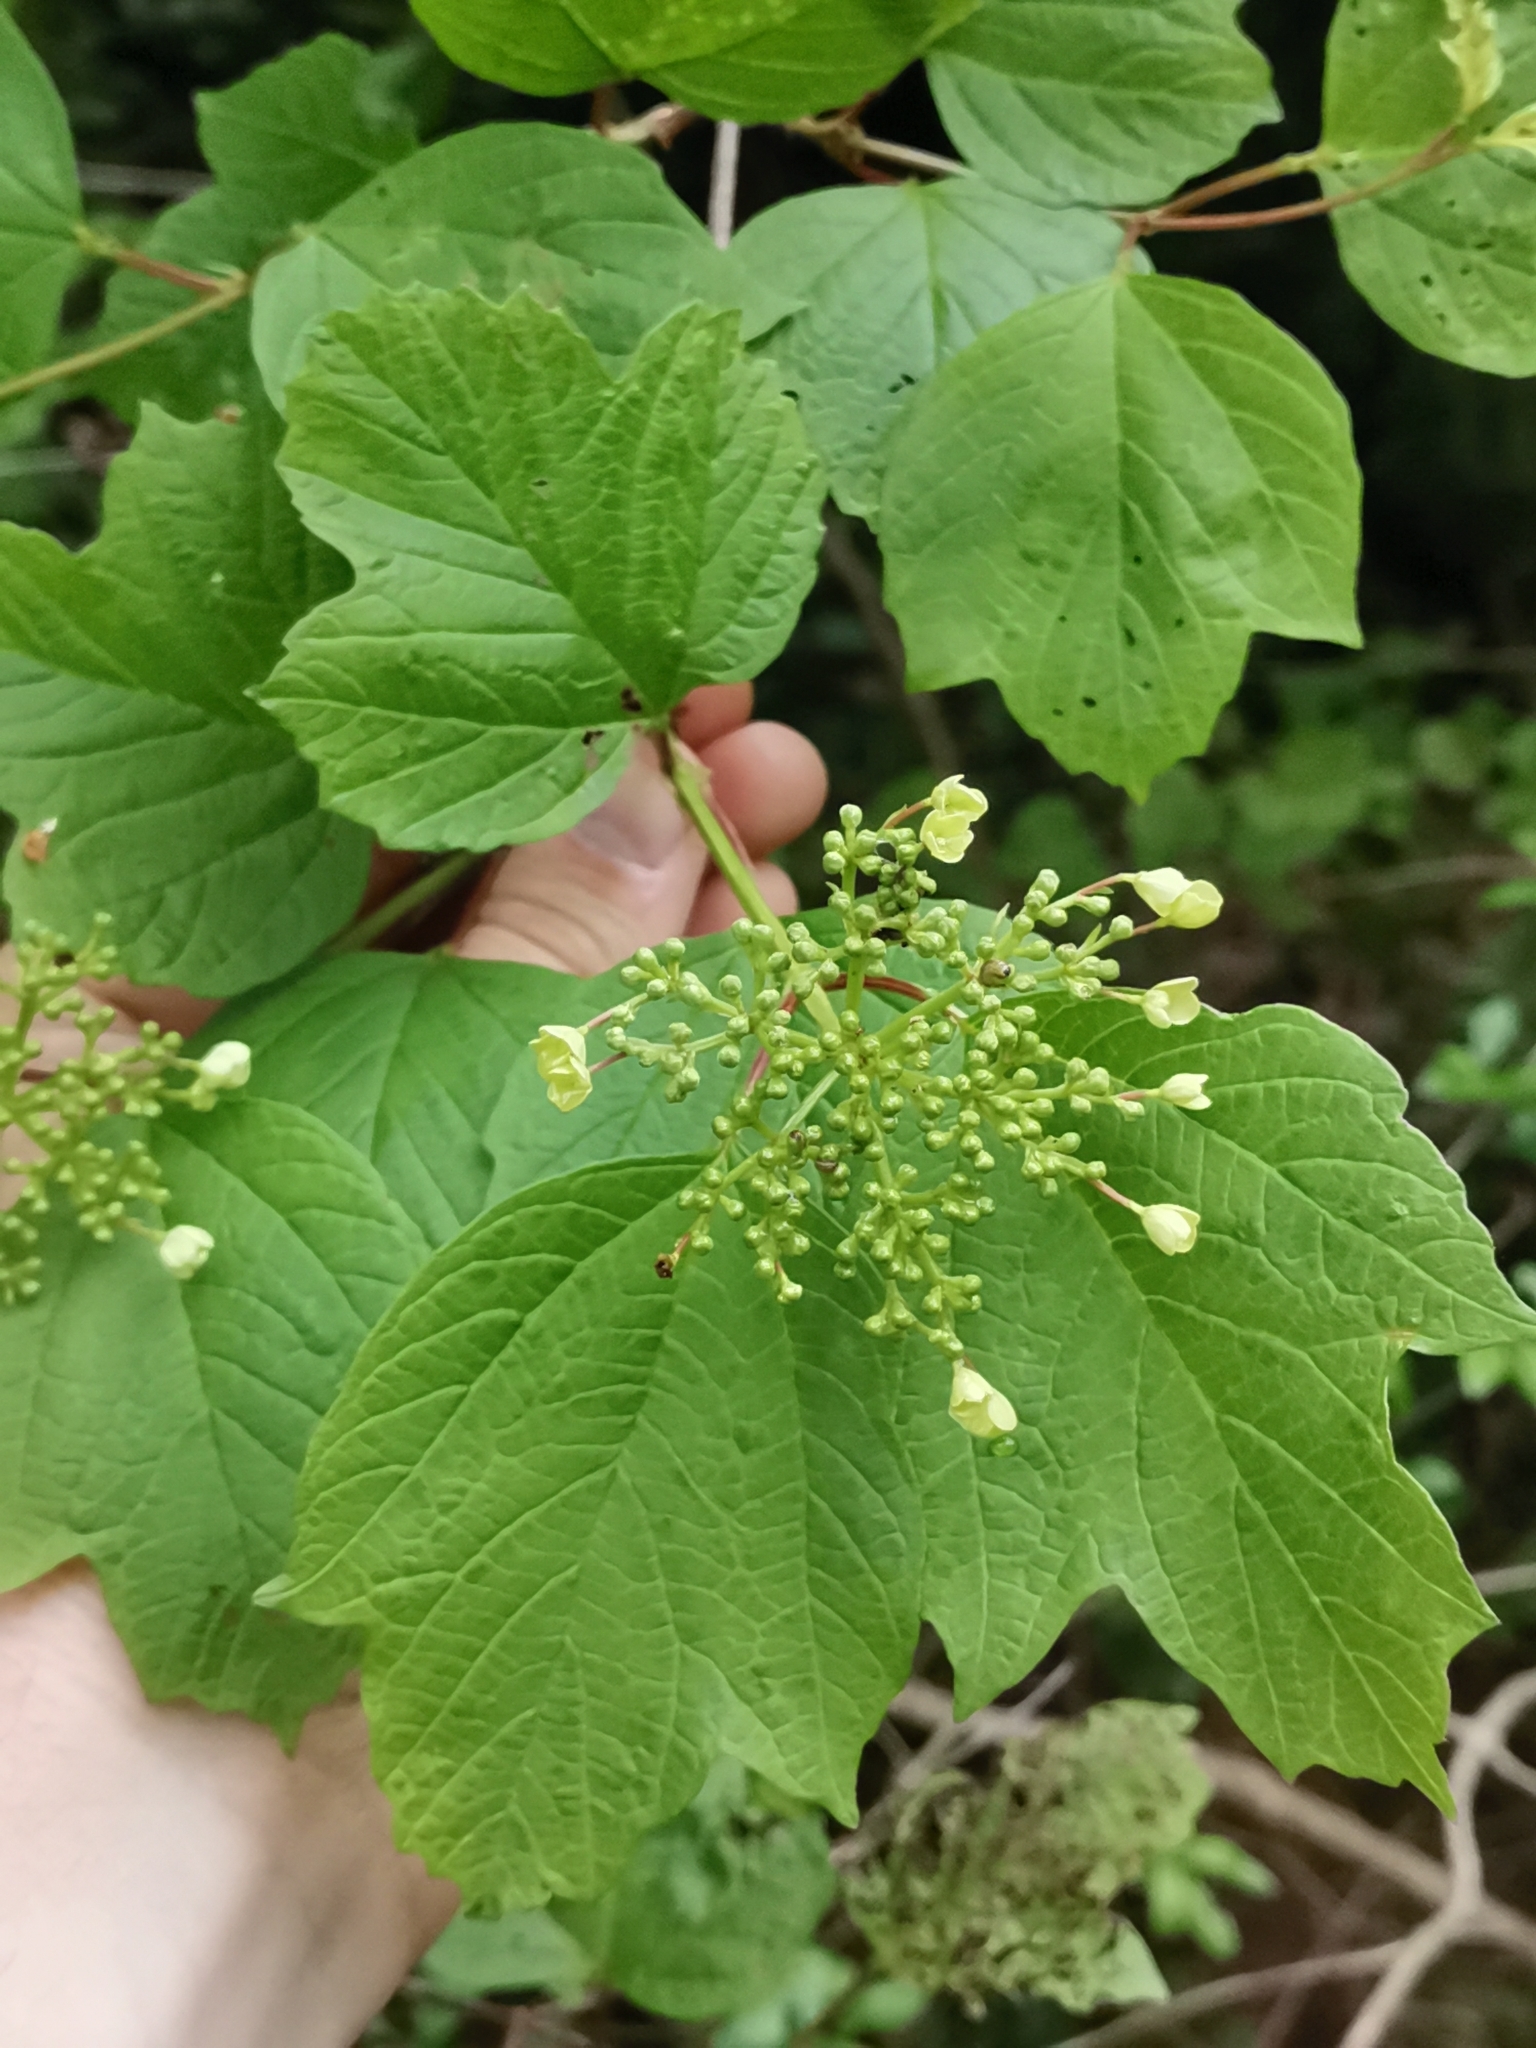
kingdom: Plantae
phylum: Tracheophyta
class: Magnoliopsida
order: Dipsacales
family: Viburnaceae
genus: Viburnum
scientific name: Viburnum opulus
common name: Guelder-rose
